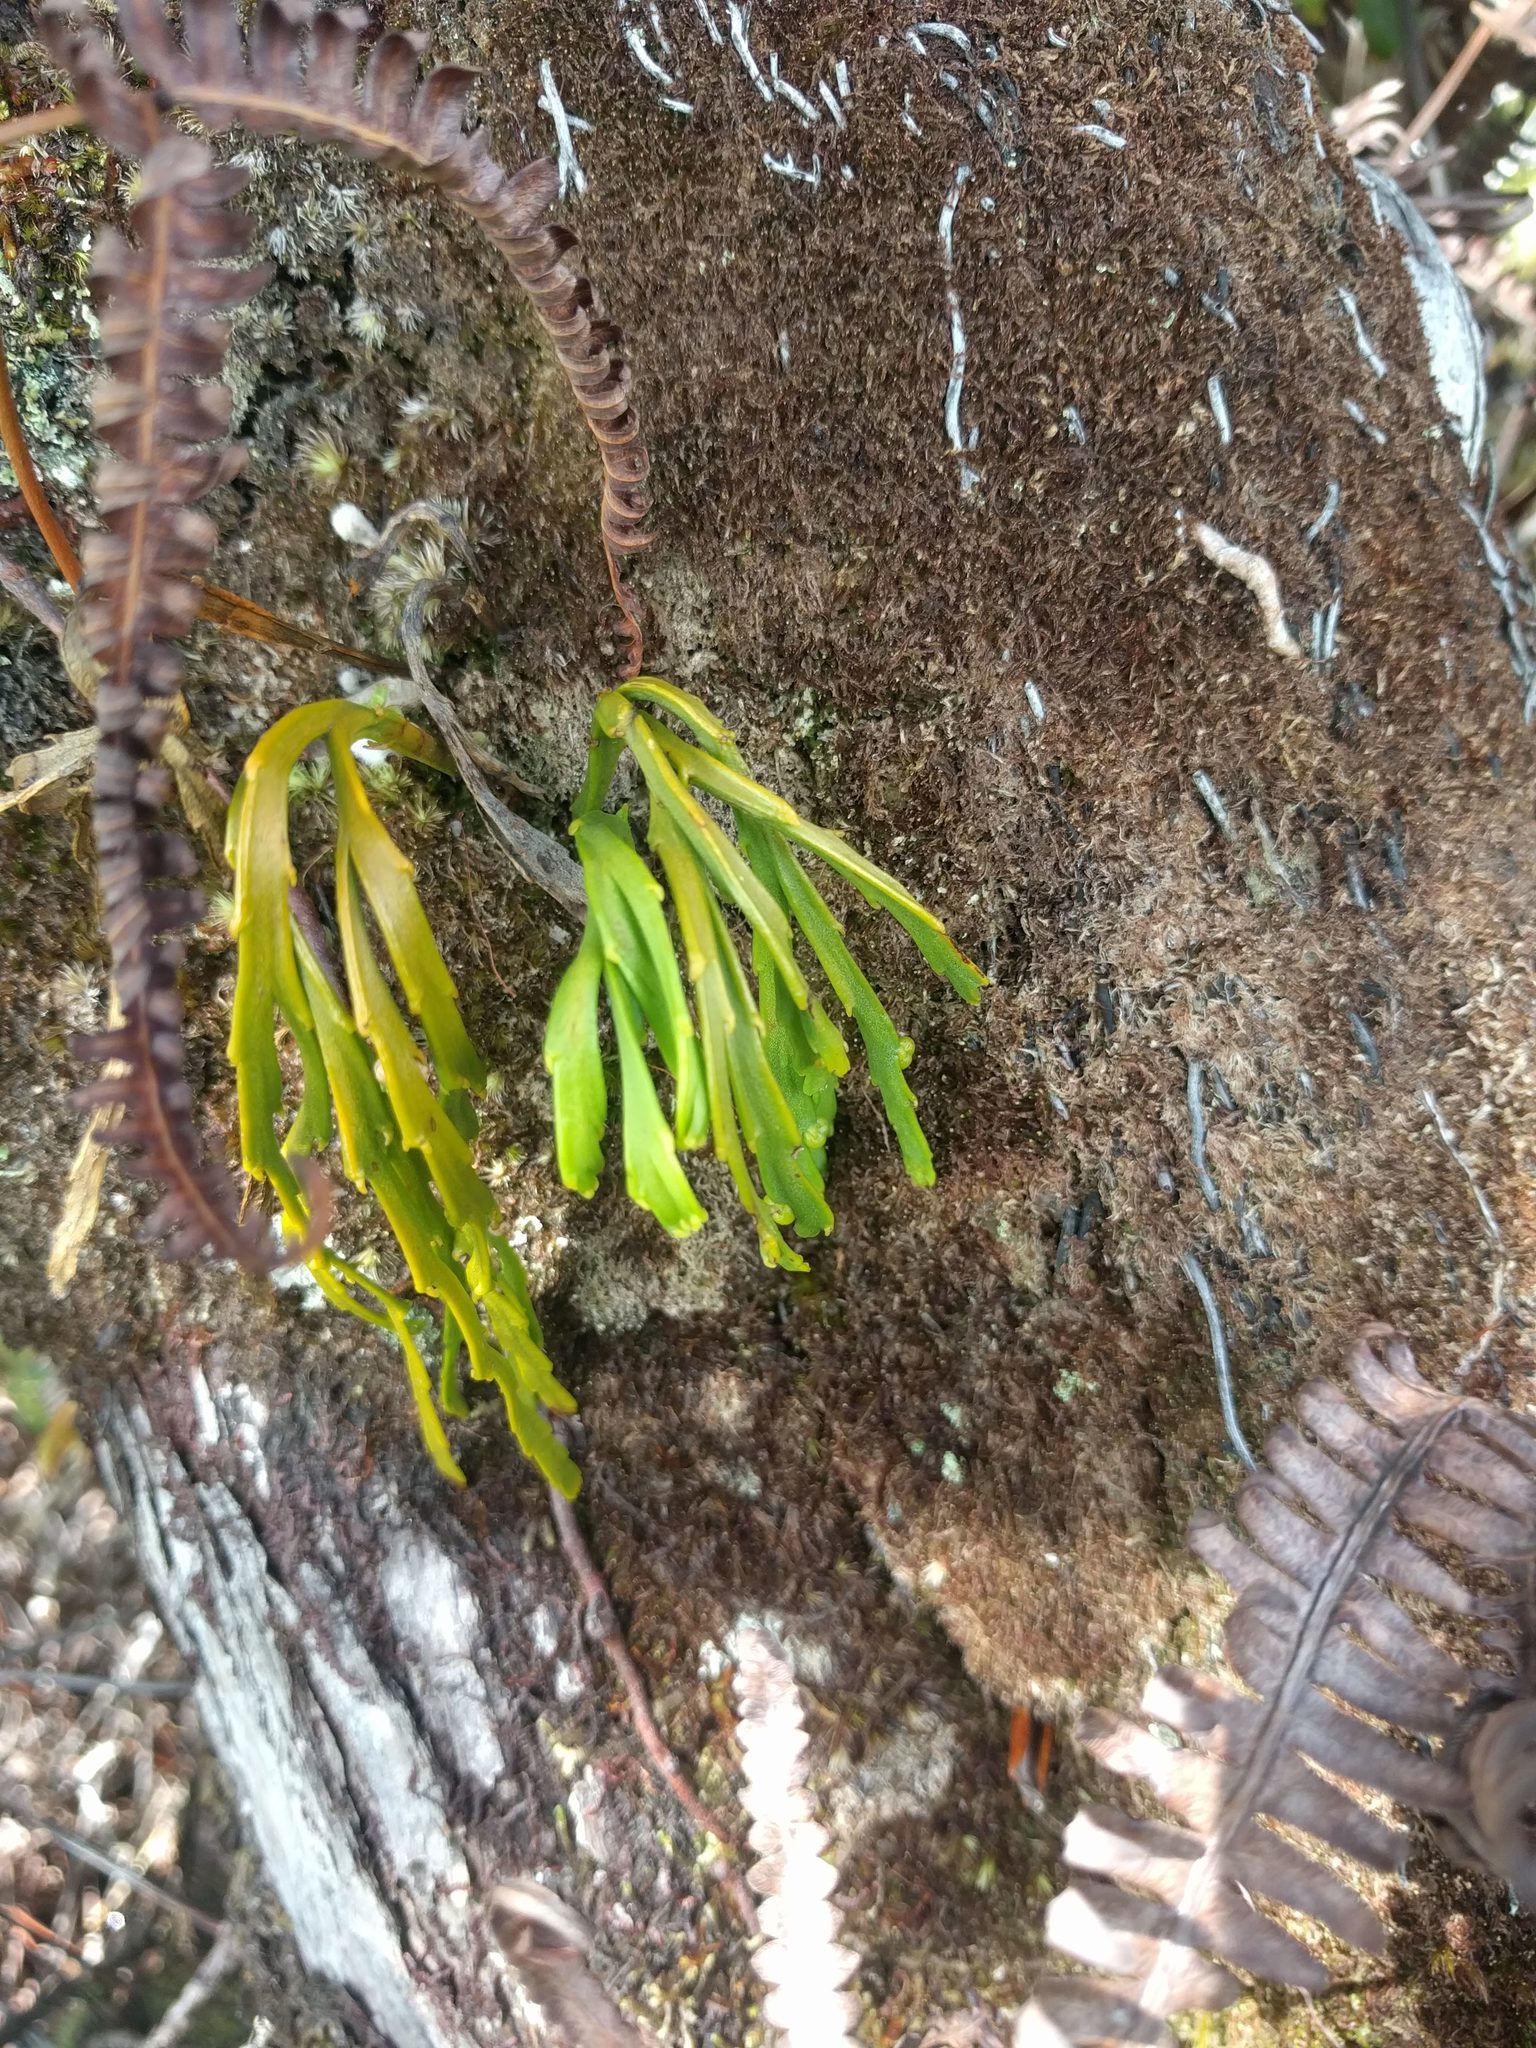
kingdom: Plantae
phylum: Tracheophyta
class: Polypodiopsida
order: Psilotales
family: Psilotaceae
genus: Psilotum
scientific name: Psilotum complanatum
